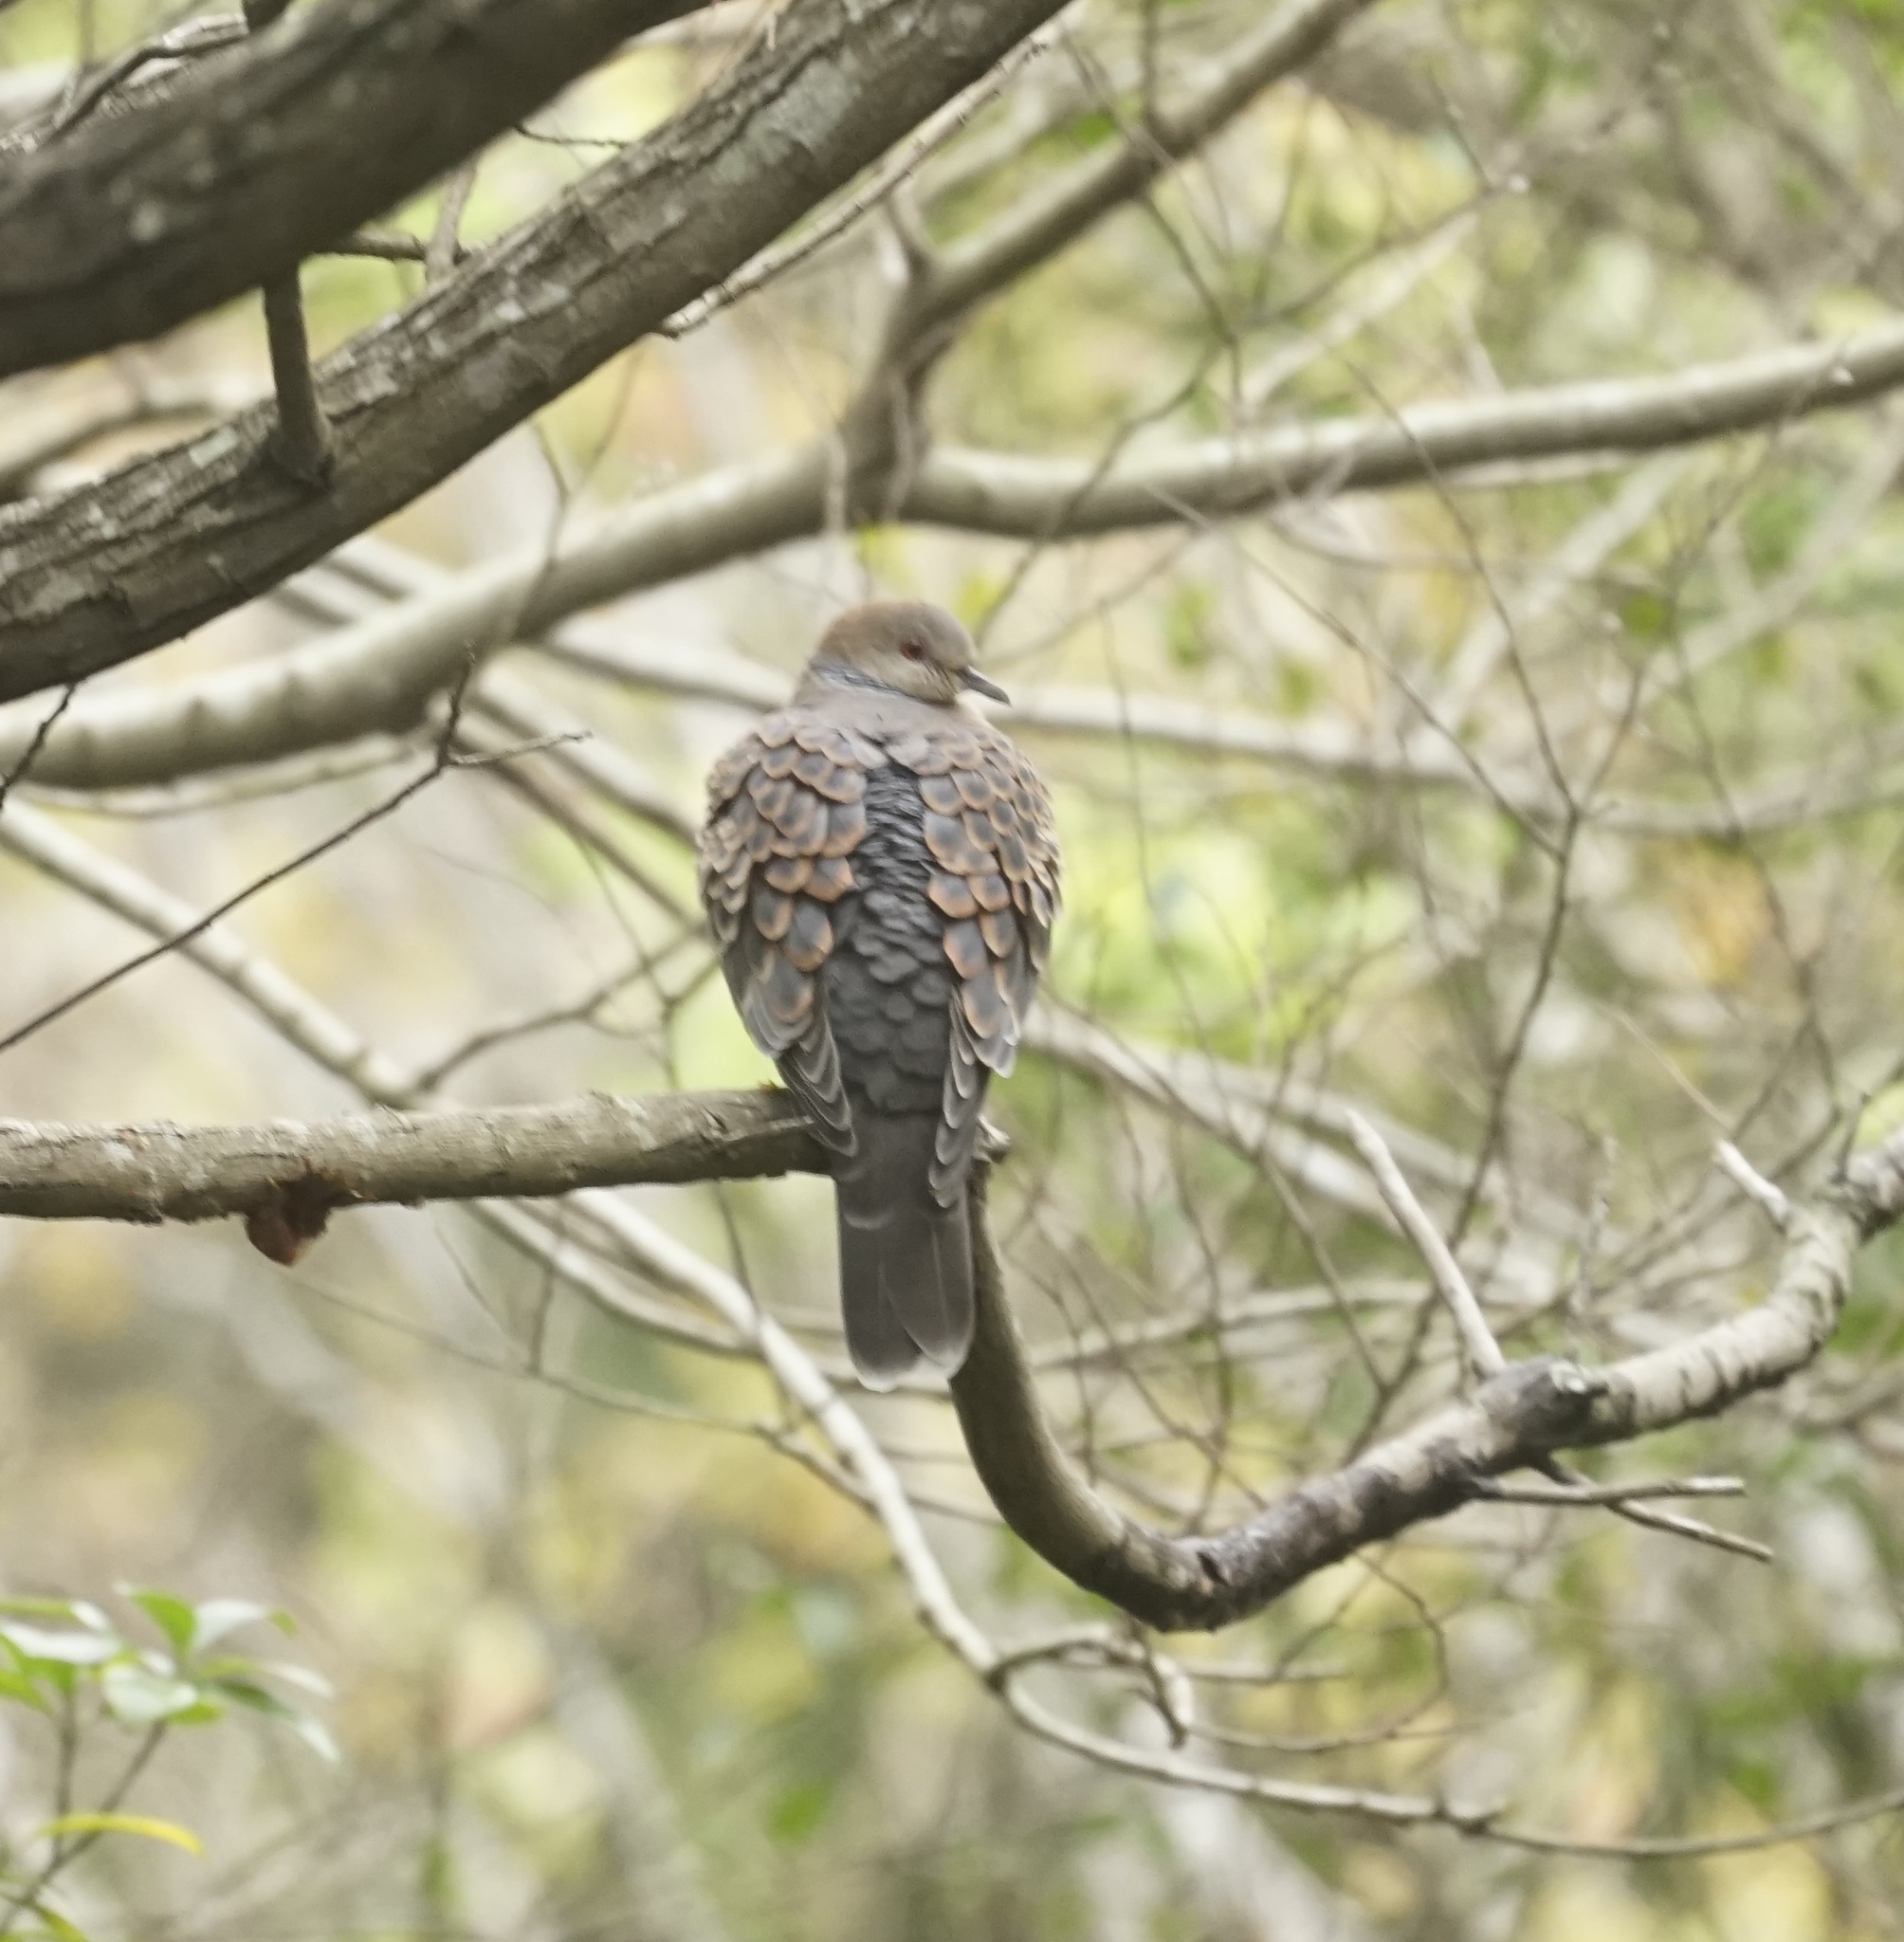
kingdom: Animalia
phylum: Chordata
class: Aves
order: Columbiformes
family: Columbidae
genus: Streptopelia
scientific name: Streptopelia orientalis
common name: Oriental turtle dove
